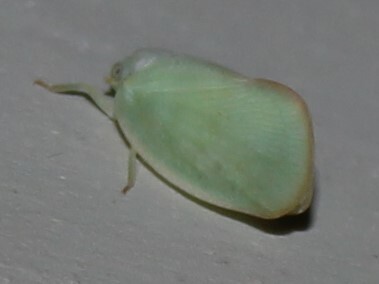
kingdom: Animalia
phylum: Arthropoda
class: Insecta
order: Hemiptera
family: Flatidae
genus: Ormenoides
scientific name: Ormenoides venusta
